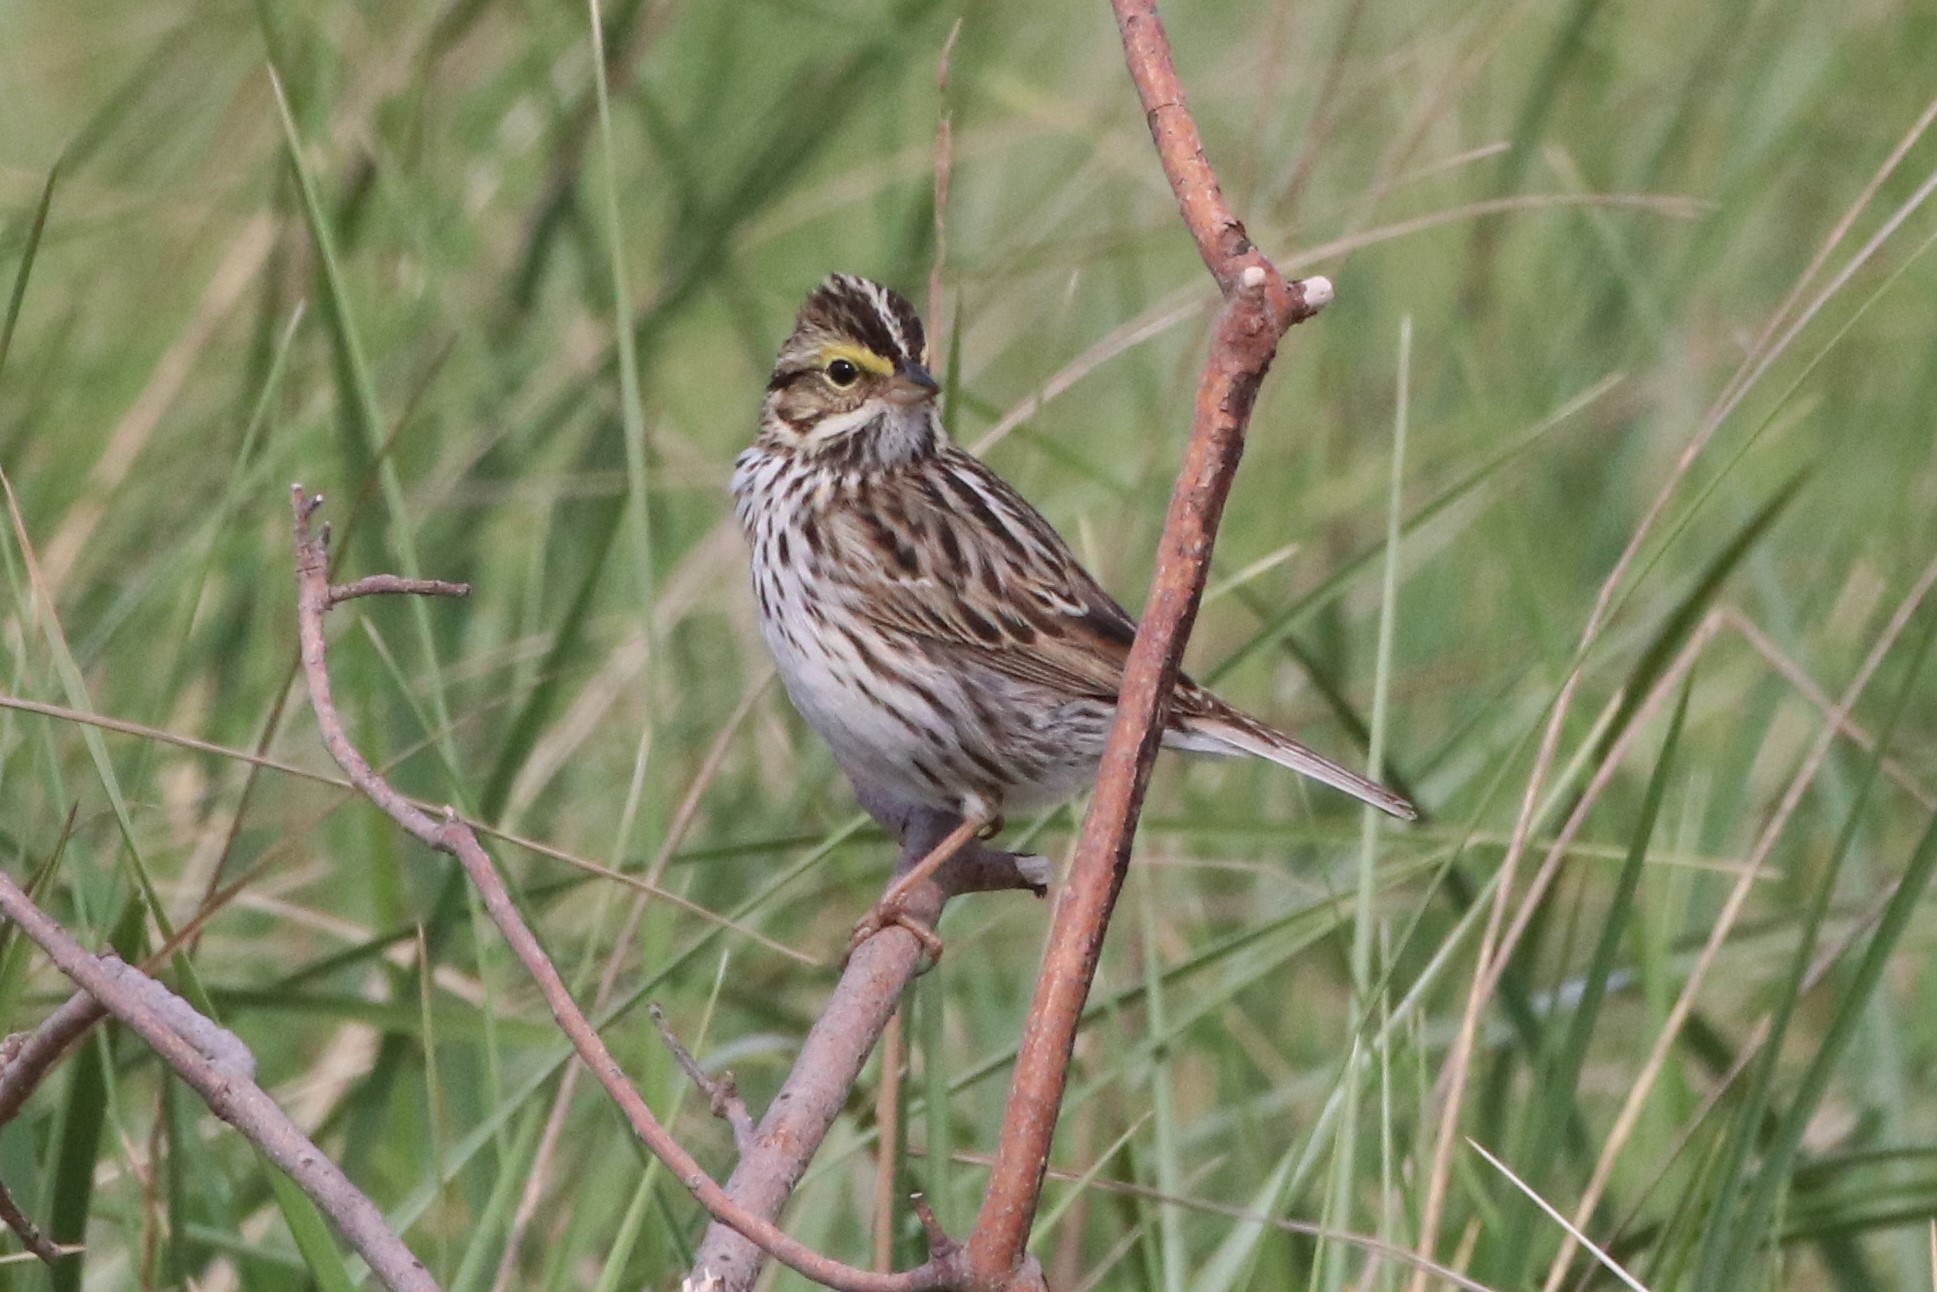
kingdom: Animalia
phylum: Chordata
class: Aves
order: Passeriformes
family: Passerellidae
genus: Passerculus
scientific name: Passerculus sandwichensis
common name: Savannah sparrow
